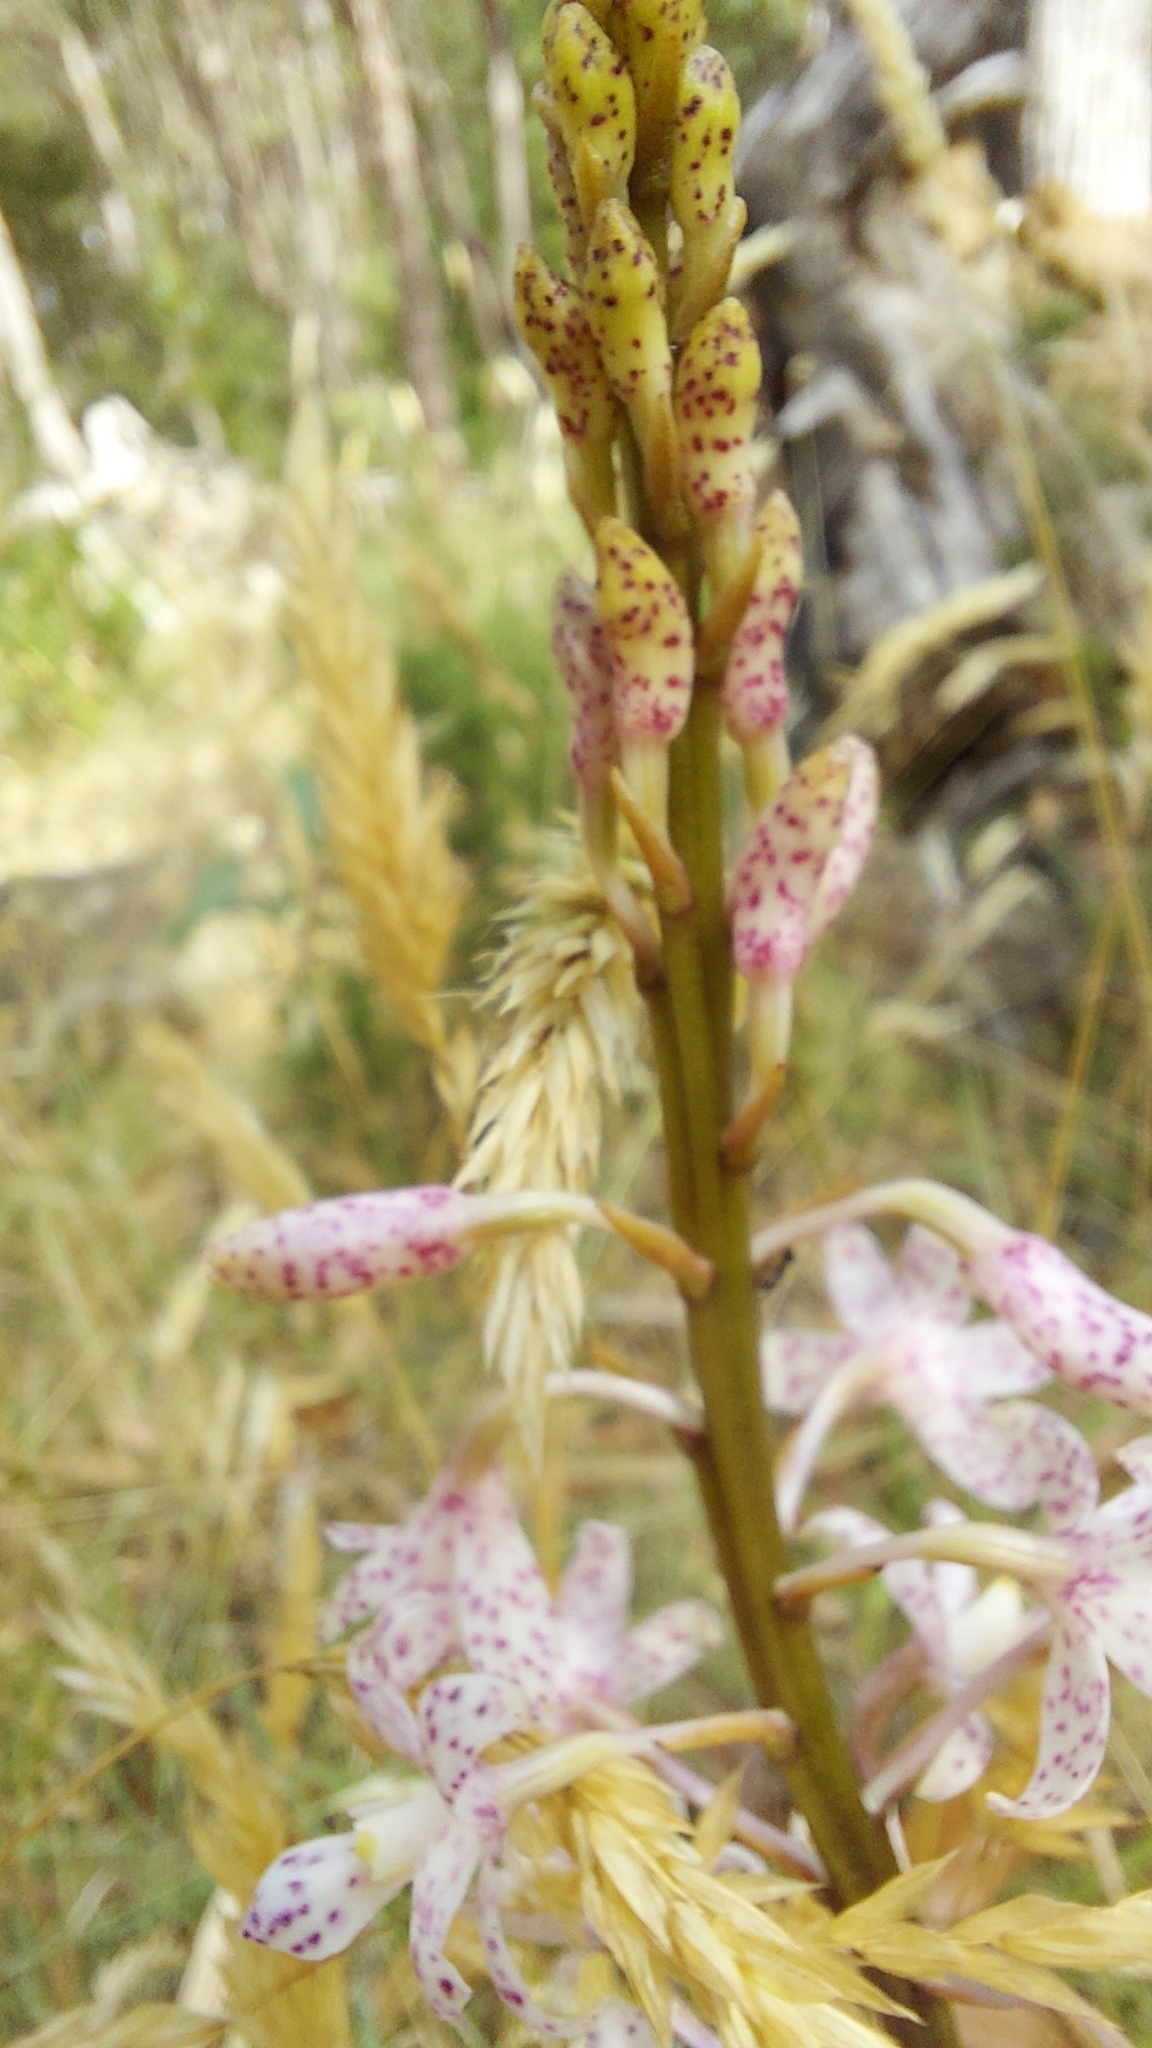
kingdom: Plantae
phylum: Tracheophyta
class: Liliopsida
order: Asparagales
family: Orchidaceae
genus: Dipodium
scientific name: Dipodium pardalinum
